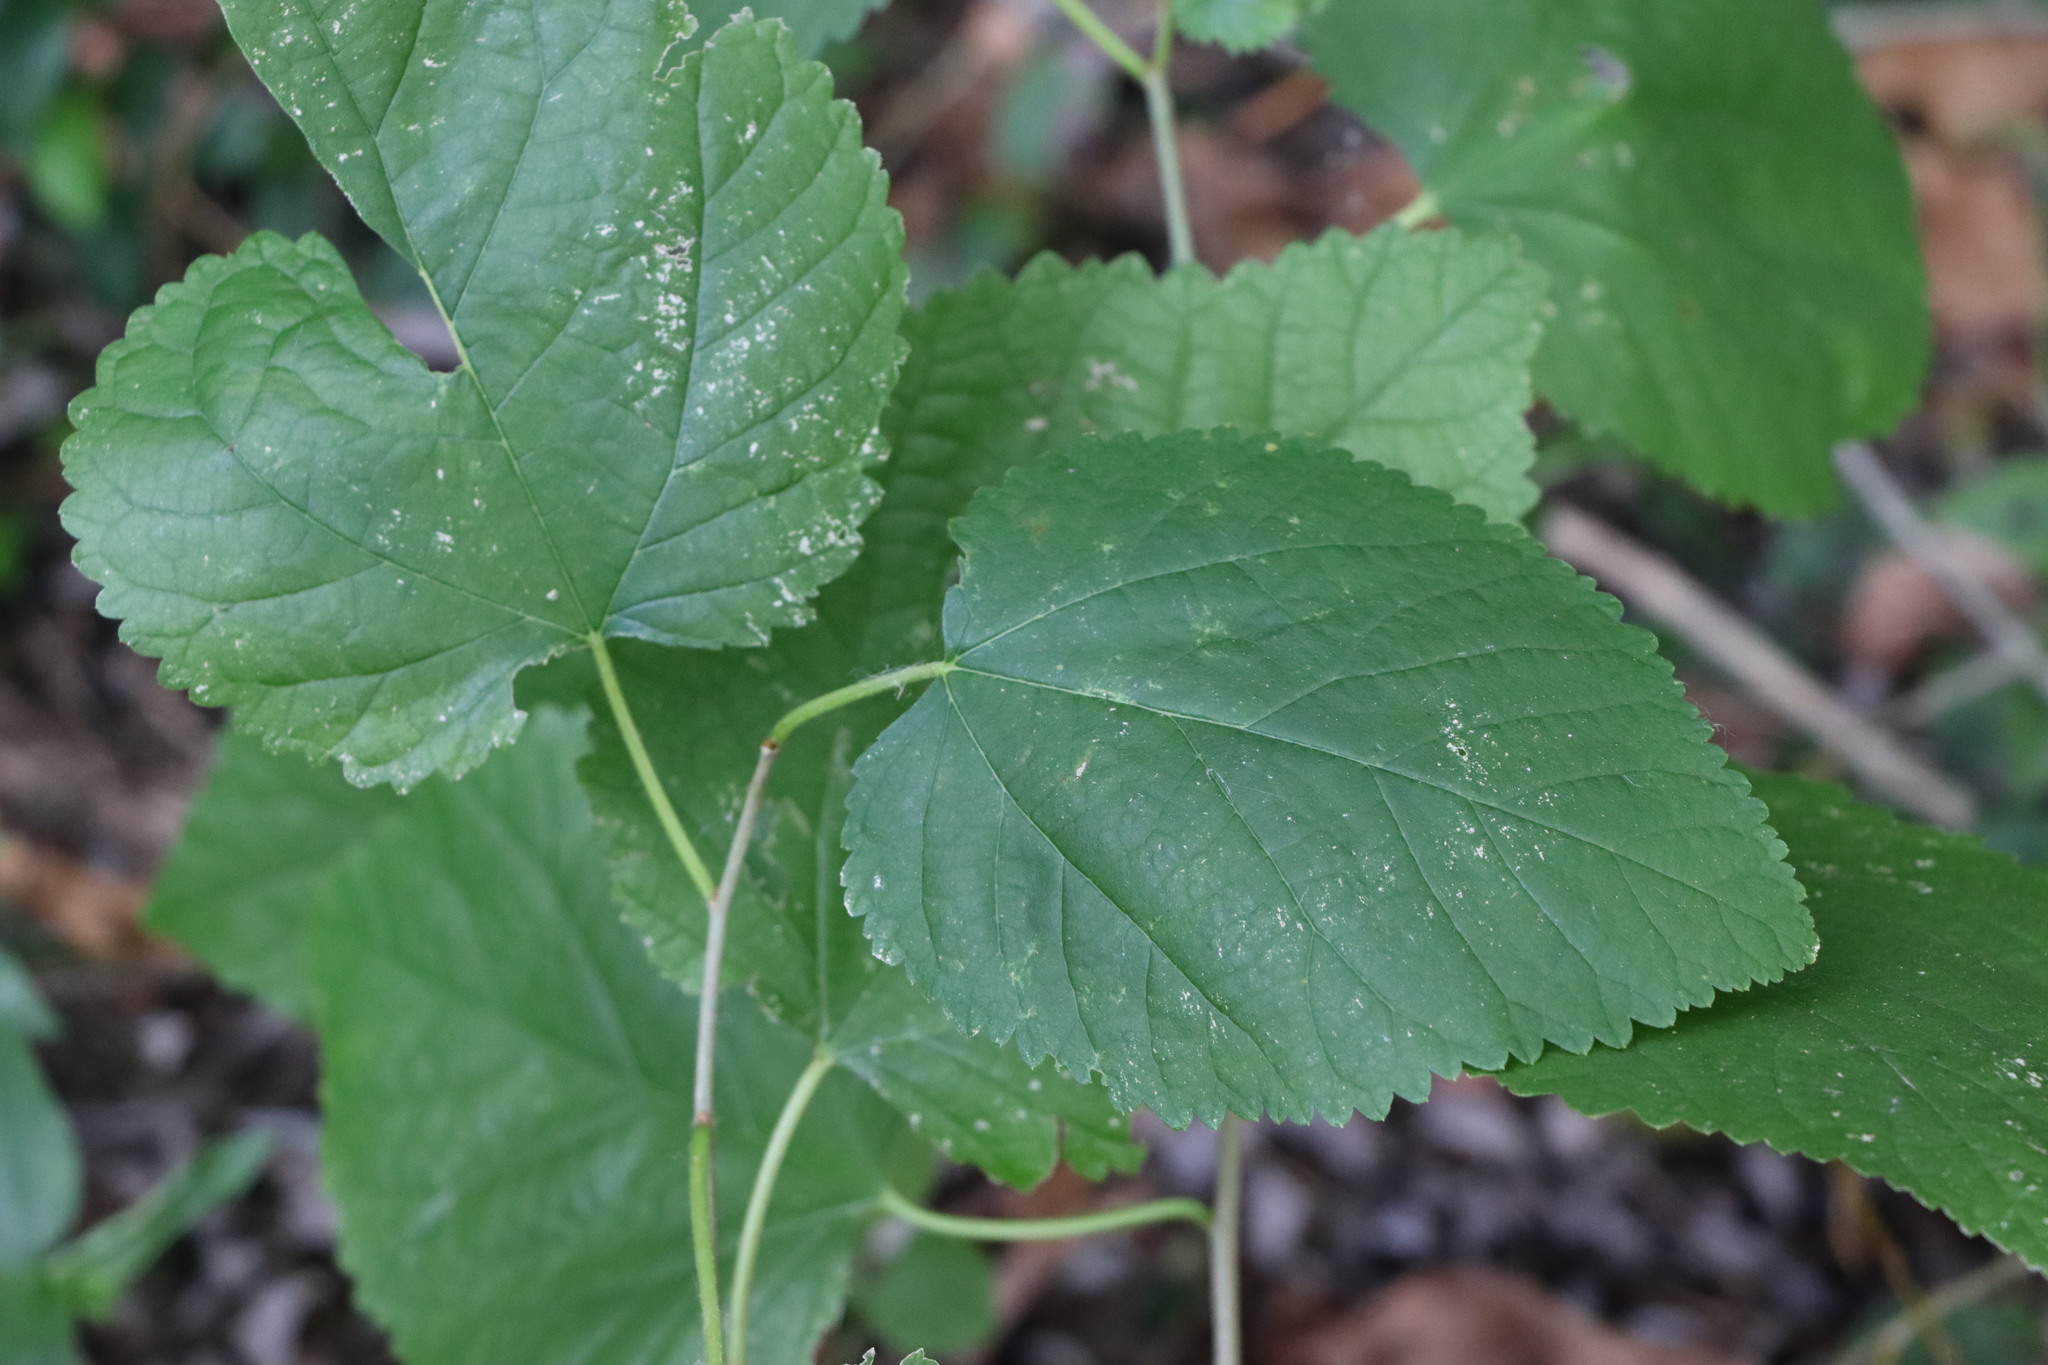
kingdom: Plantae
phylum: Tracheophyta
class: Magnoliopsida
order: Rosales
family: Moraceae
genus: Morus
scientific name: Morus indica
